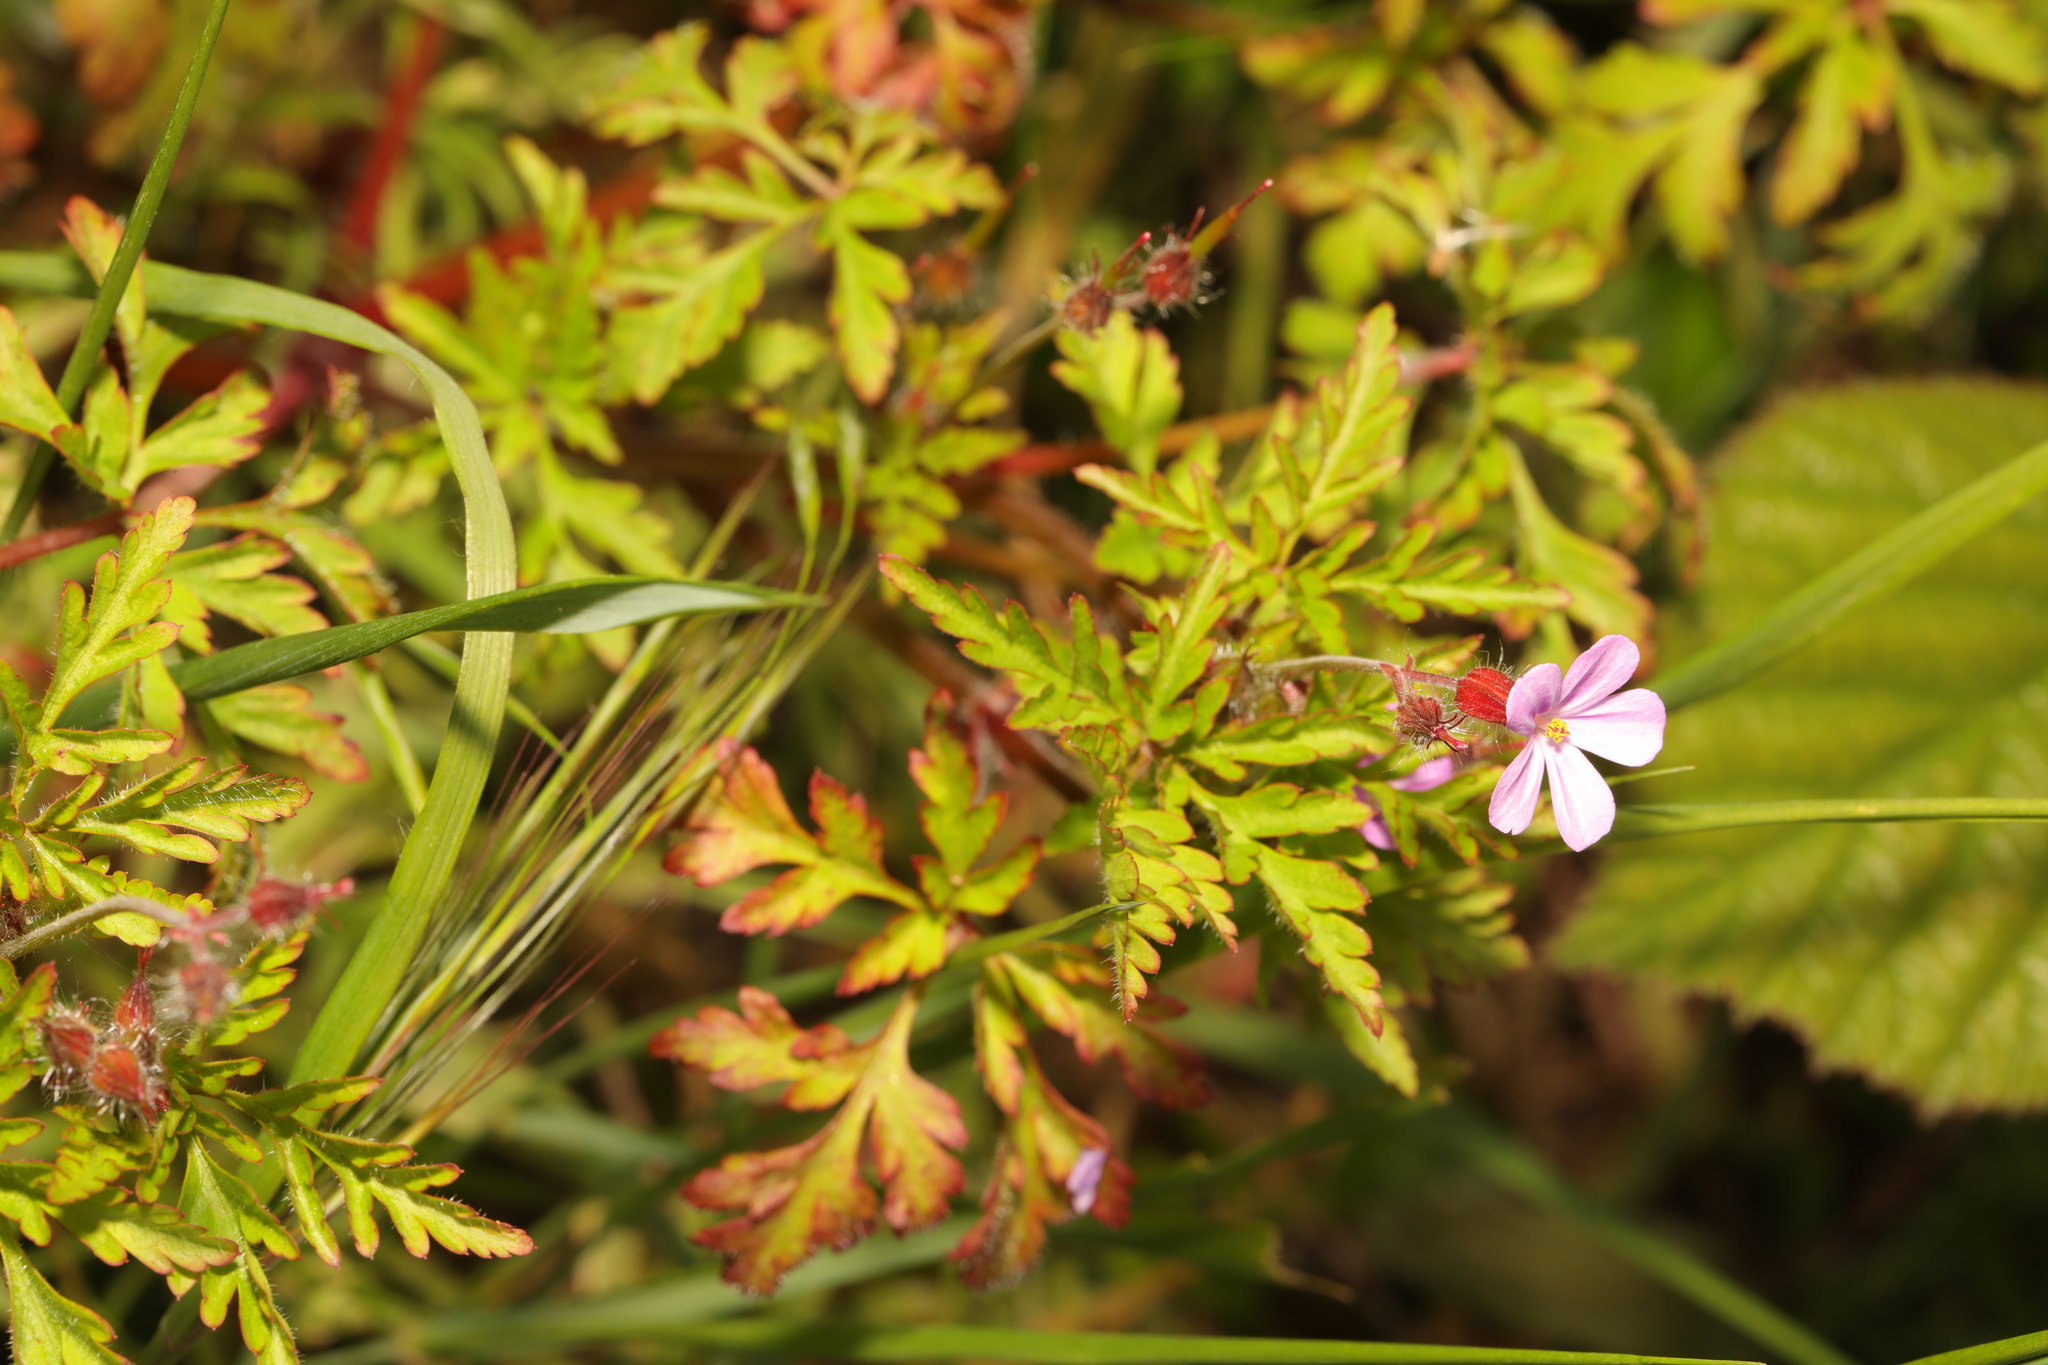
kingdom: Plantae
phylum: Tracheophyta
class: Magnoliopsida
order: Geraniales
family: Geraniaceae
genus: Geranium
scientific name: Geranium robertianum
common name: Herb-robert
